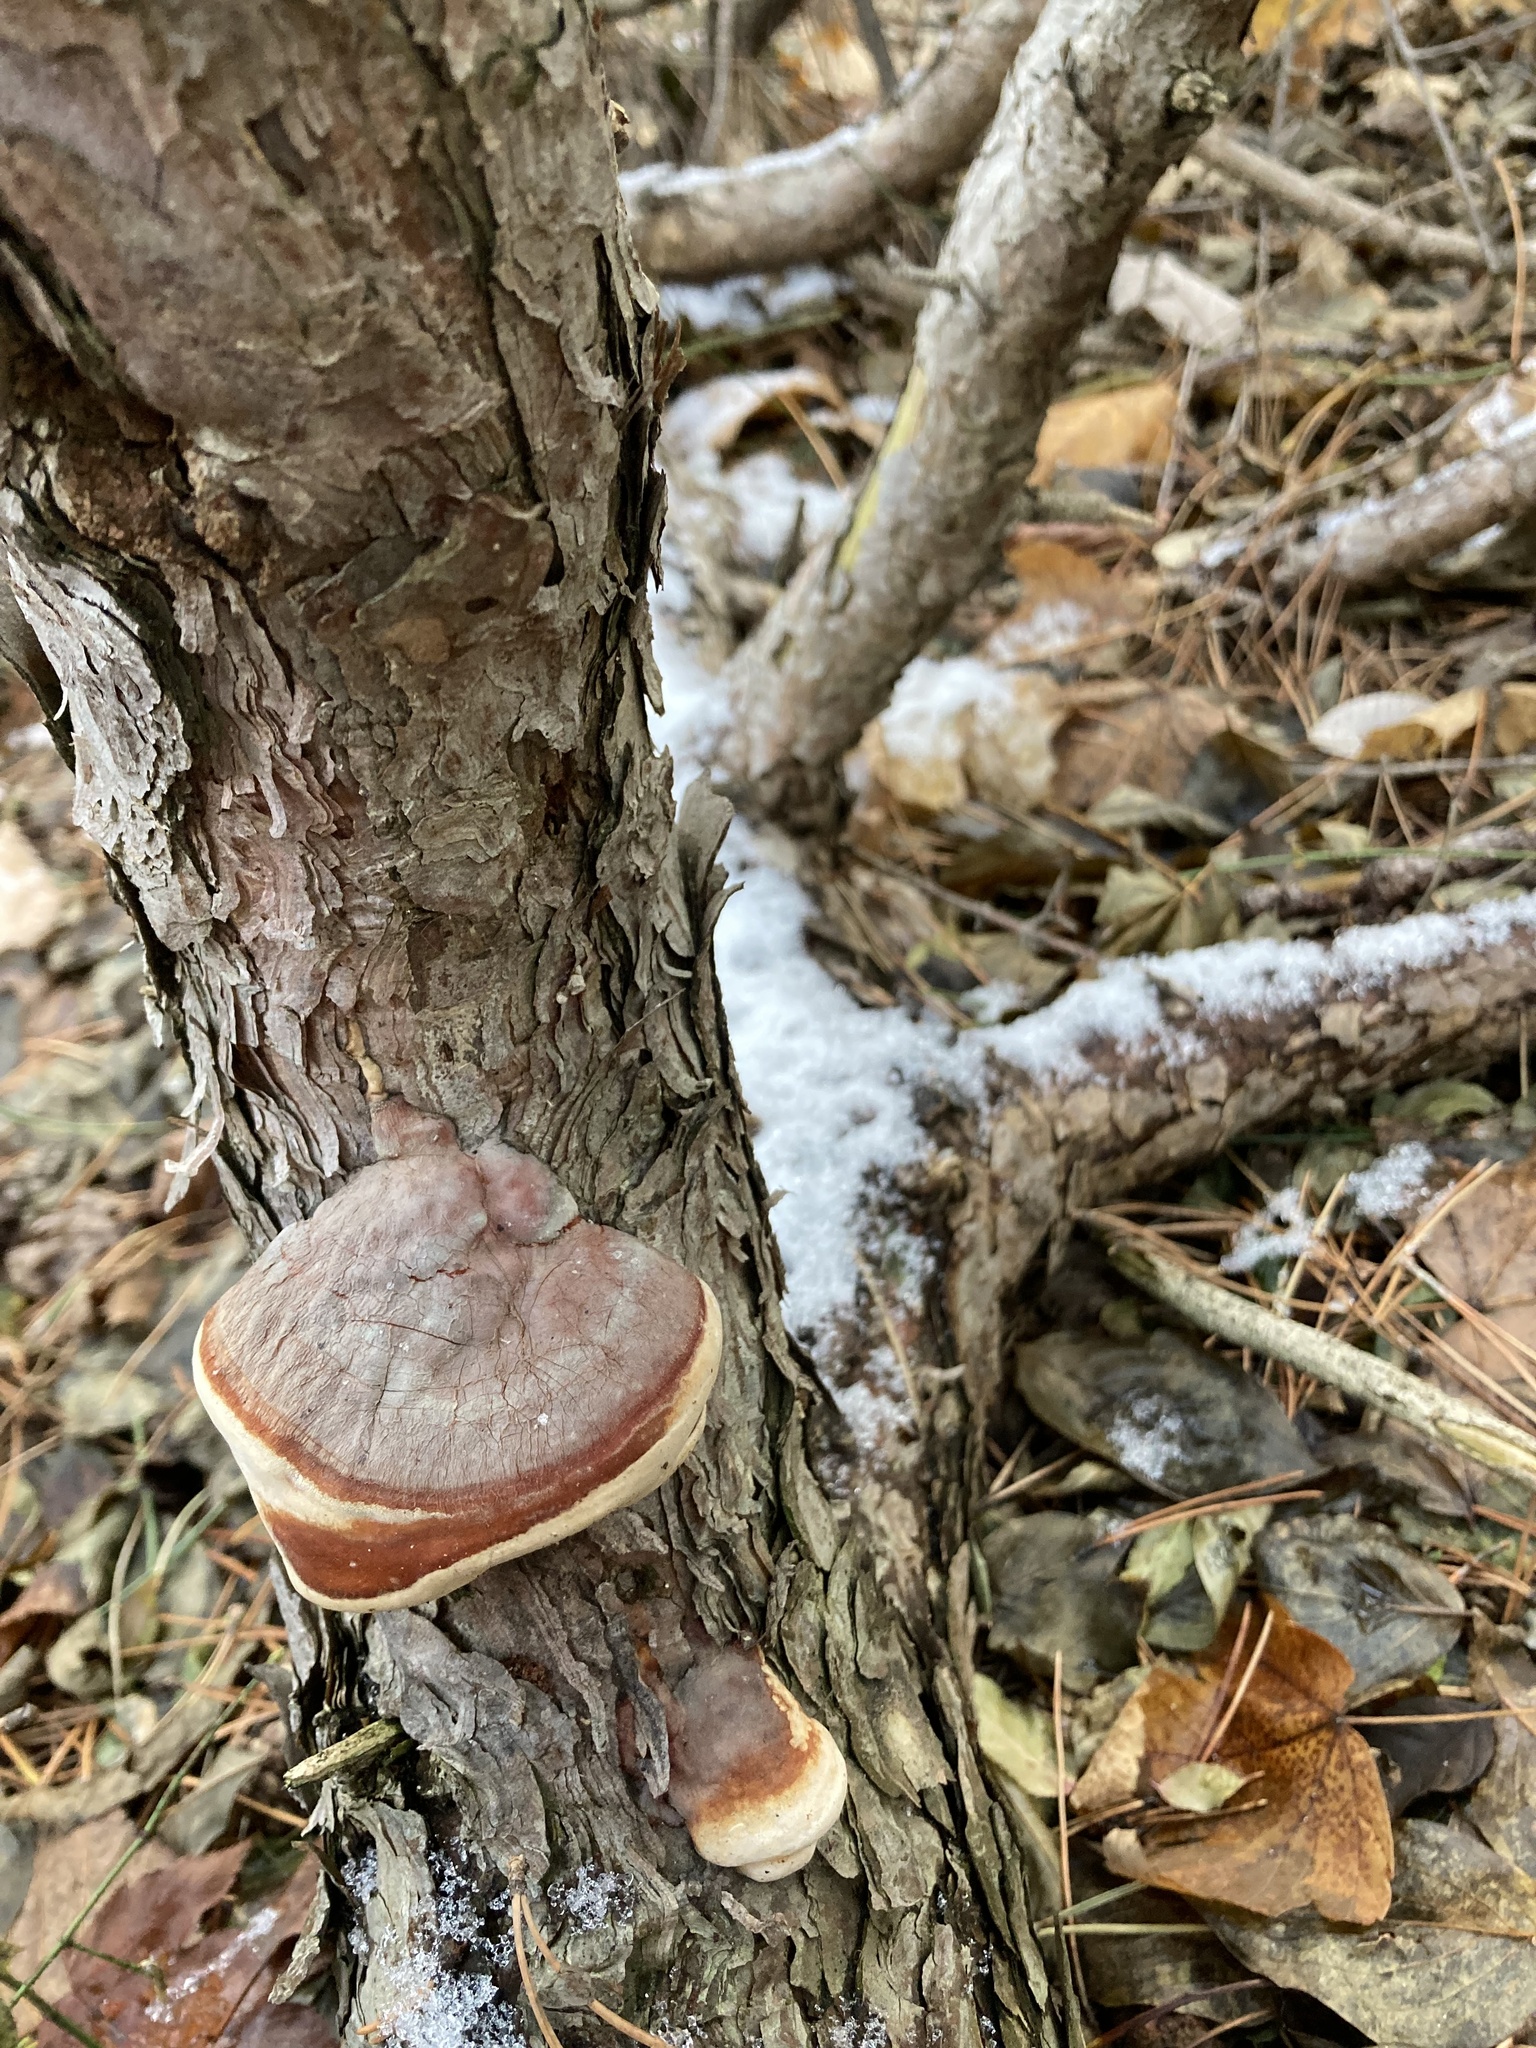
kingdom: Fungi
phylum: Basidiomycota
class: Agaricomycetes
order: Polyporales
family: Fomitopsidaceae
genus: Fomitopsis
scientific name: Fomitopsis pinicola
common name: Red-belted bracket
